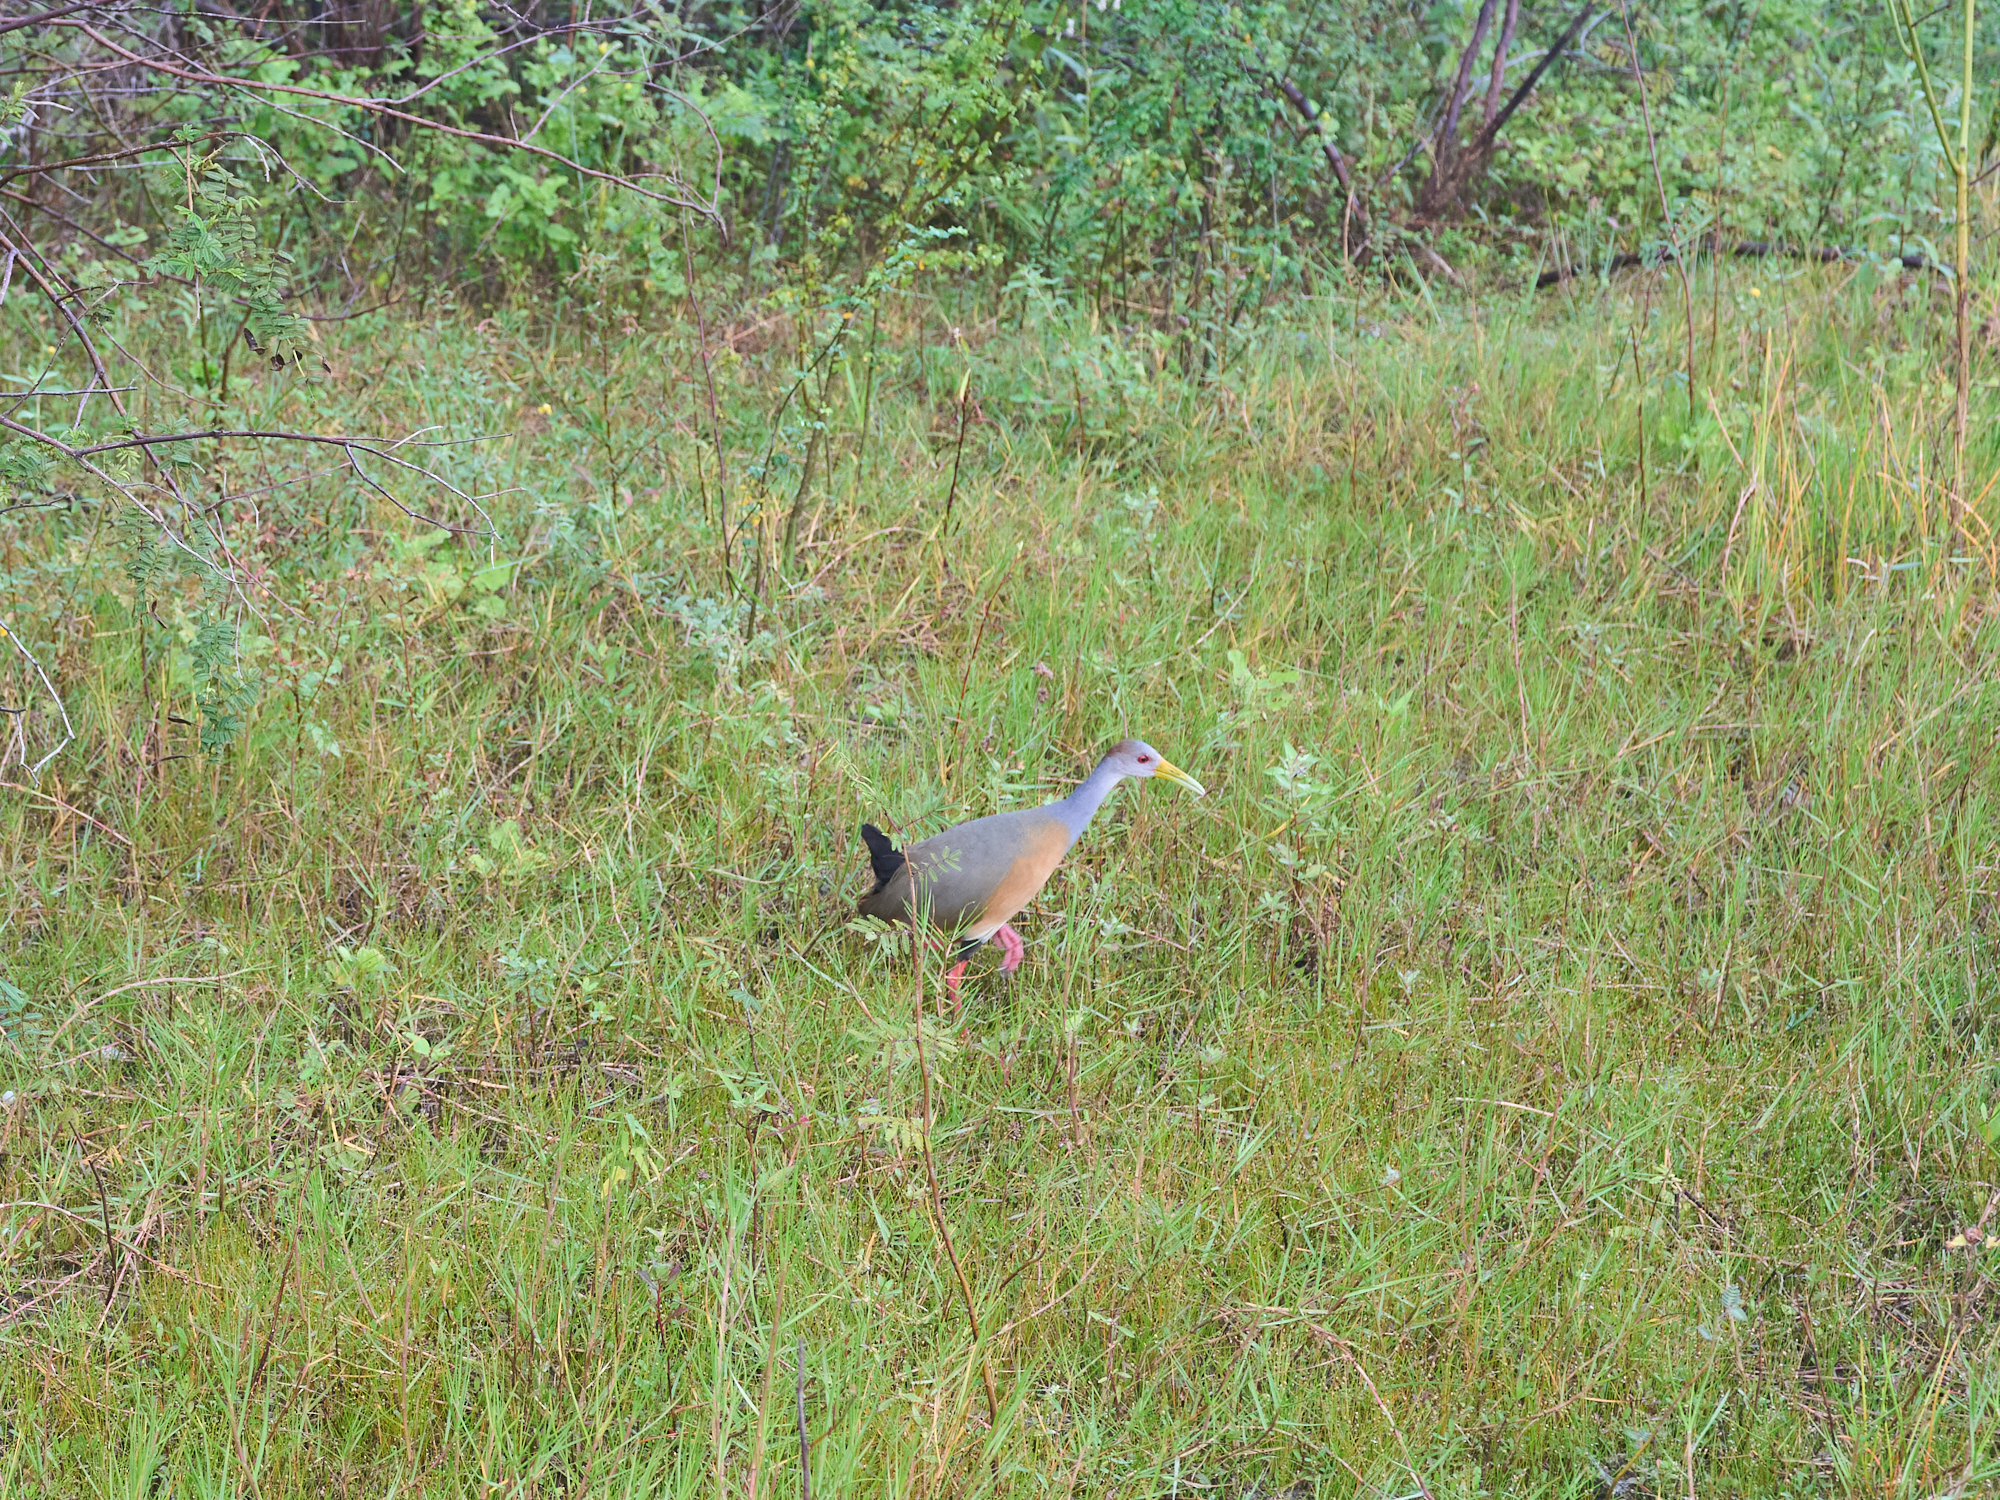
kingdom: Animalia
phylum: Chordata
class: Aves
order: Gruiformes
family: Rallidae
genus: Aramides
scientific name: Aramides albiventris
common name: Russet-naped wood-rail
